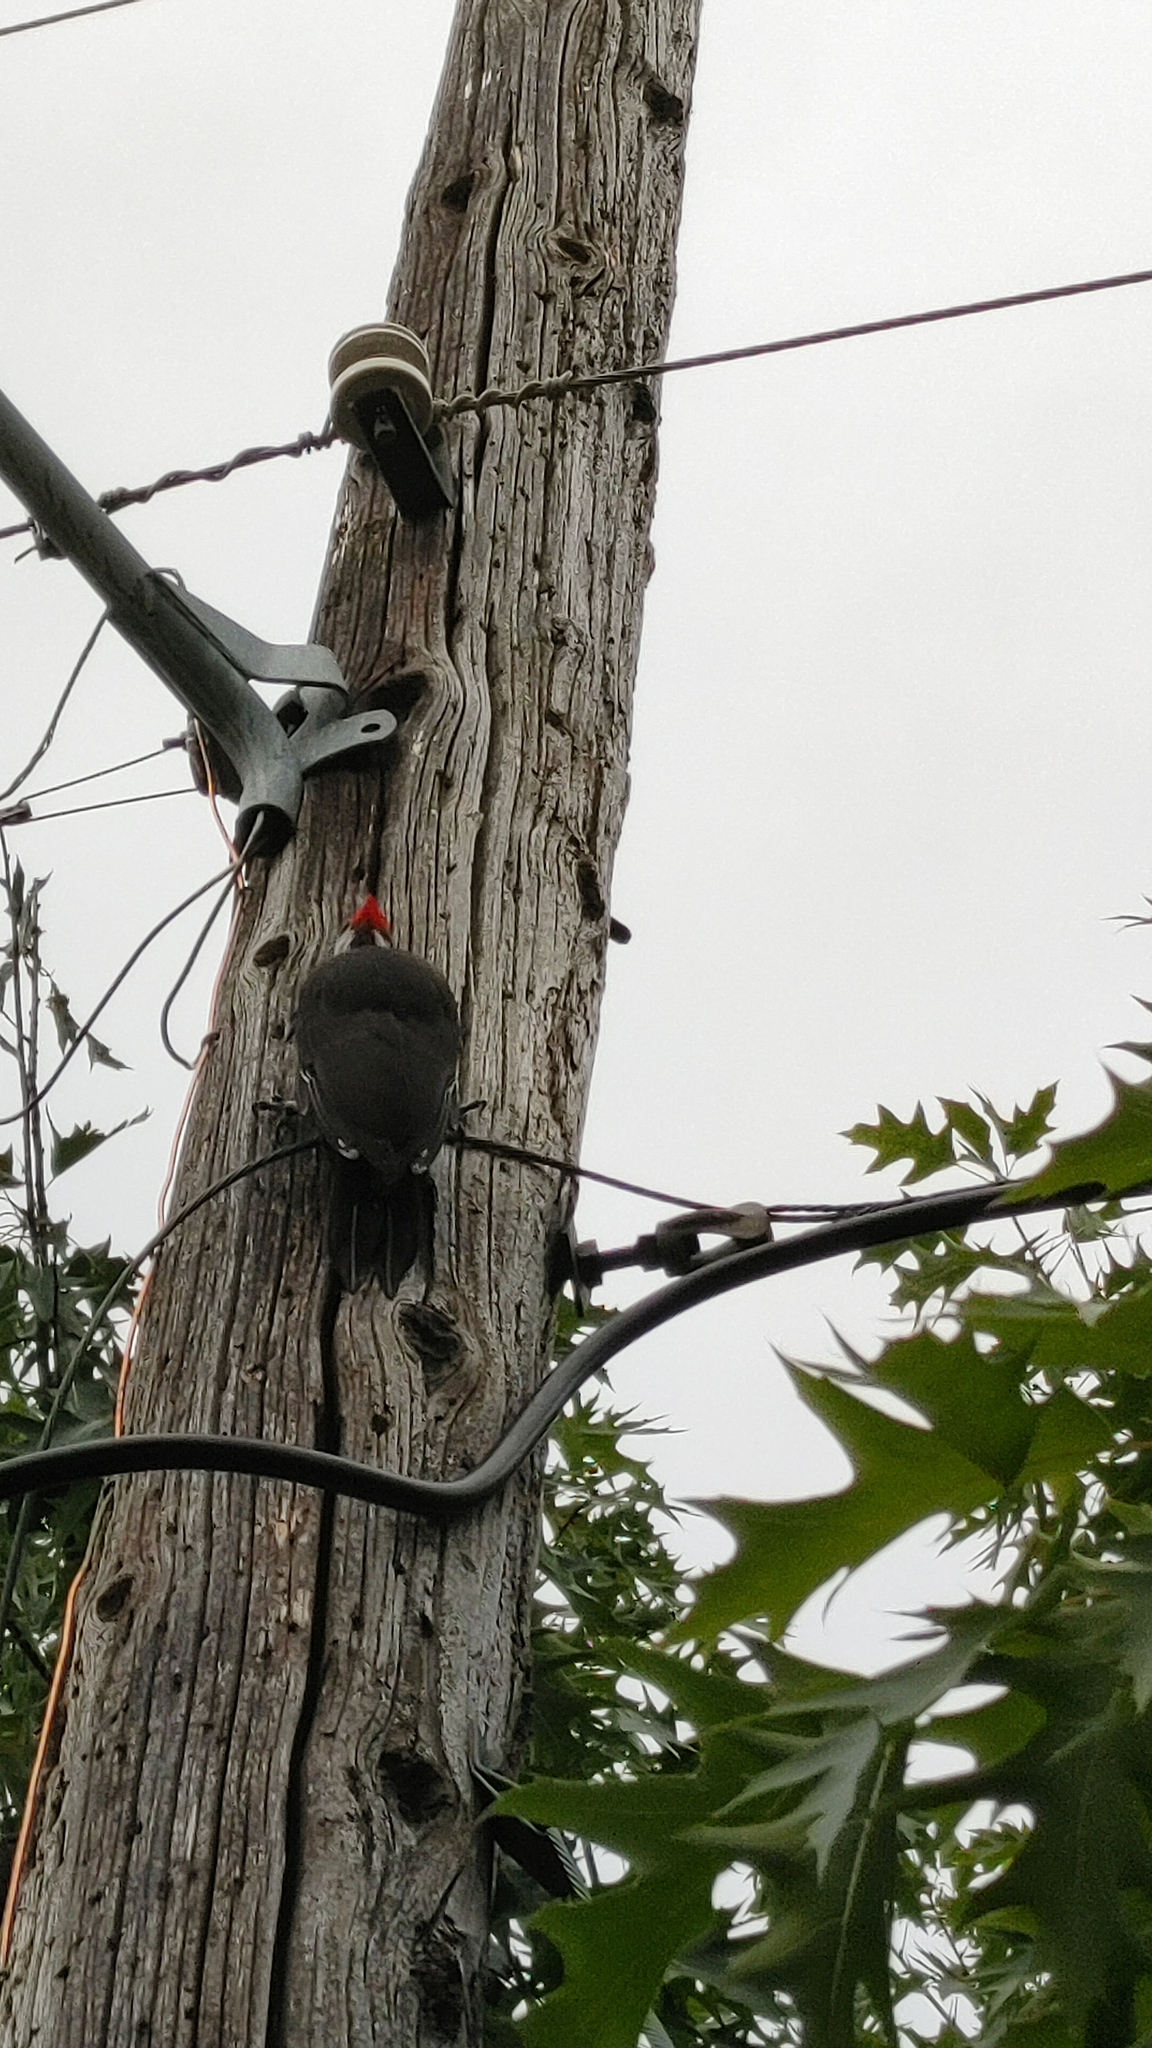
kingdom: Animalia
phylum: Chordata
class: Aves
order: Piciformes
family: Picidae
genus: Dryocopus
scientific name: Dryocopus pileatus
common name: Pileated woodpecker
